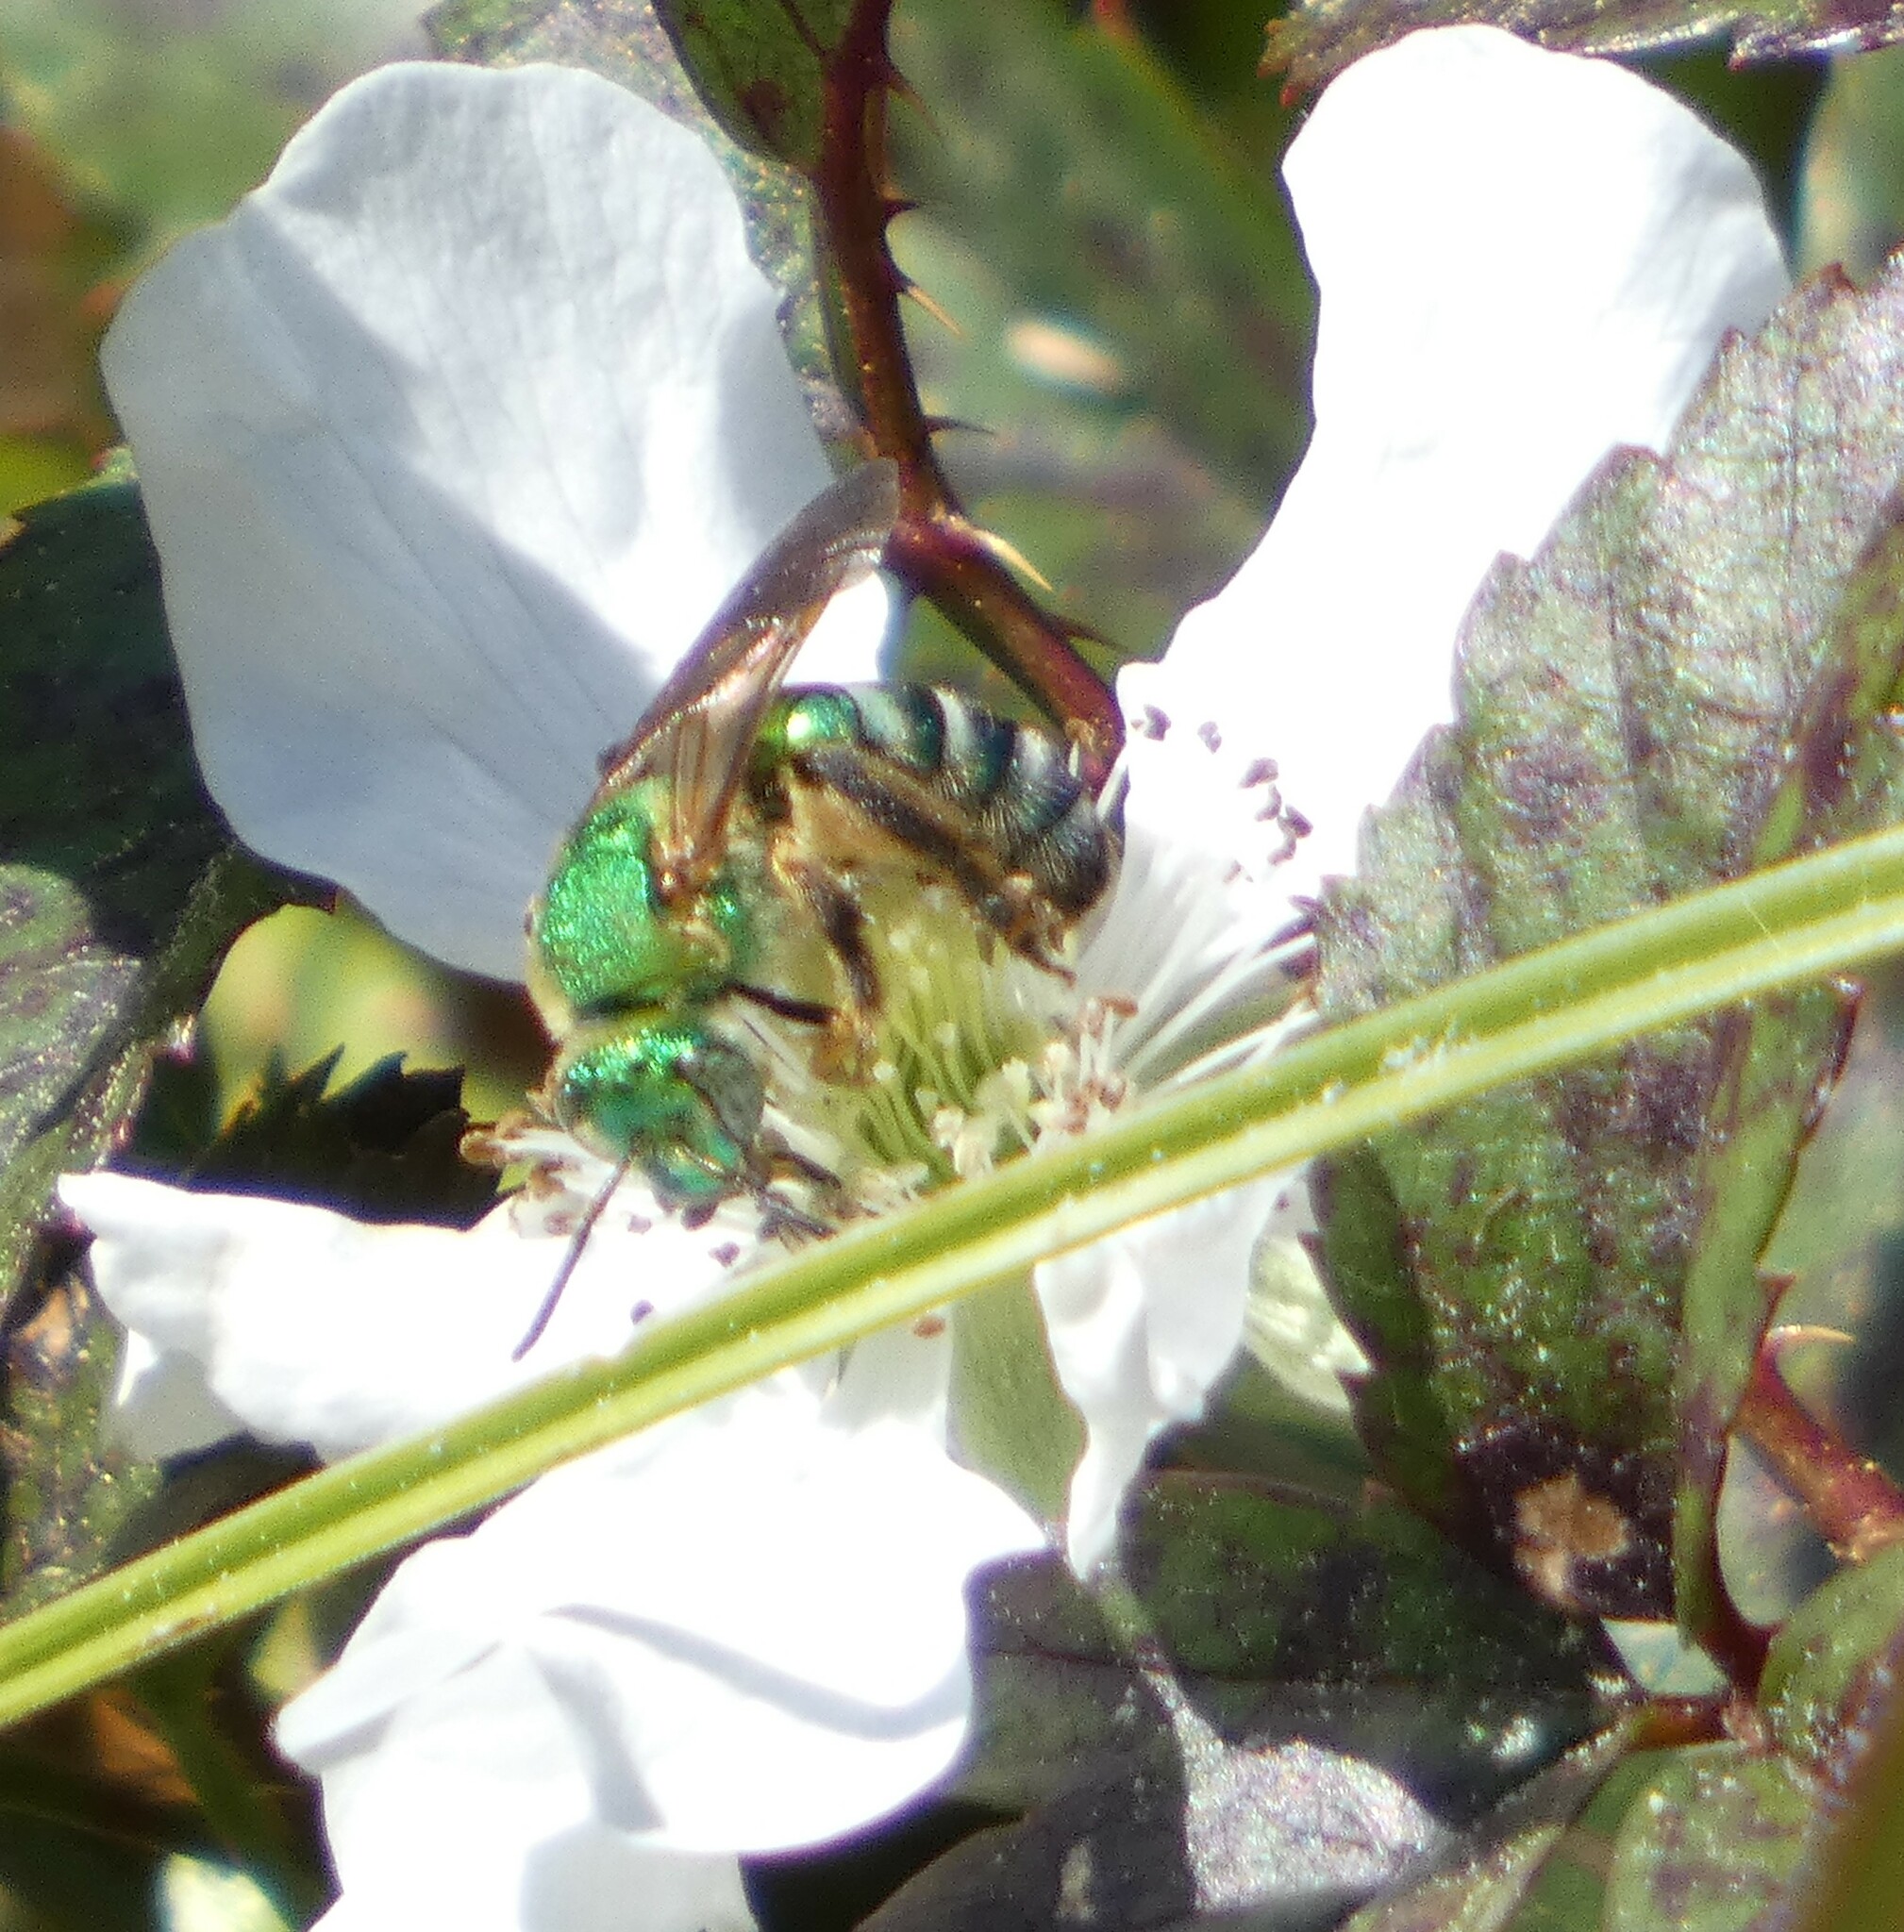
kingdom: Animalia
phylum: Arthropoda
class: Insecta
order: Hymenoptera
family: Halictidae
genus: Agapostemon
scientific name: Agapostemon splendens
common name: Brown-winged striped sweat bee
